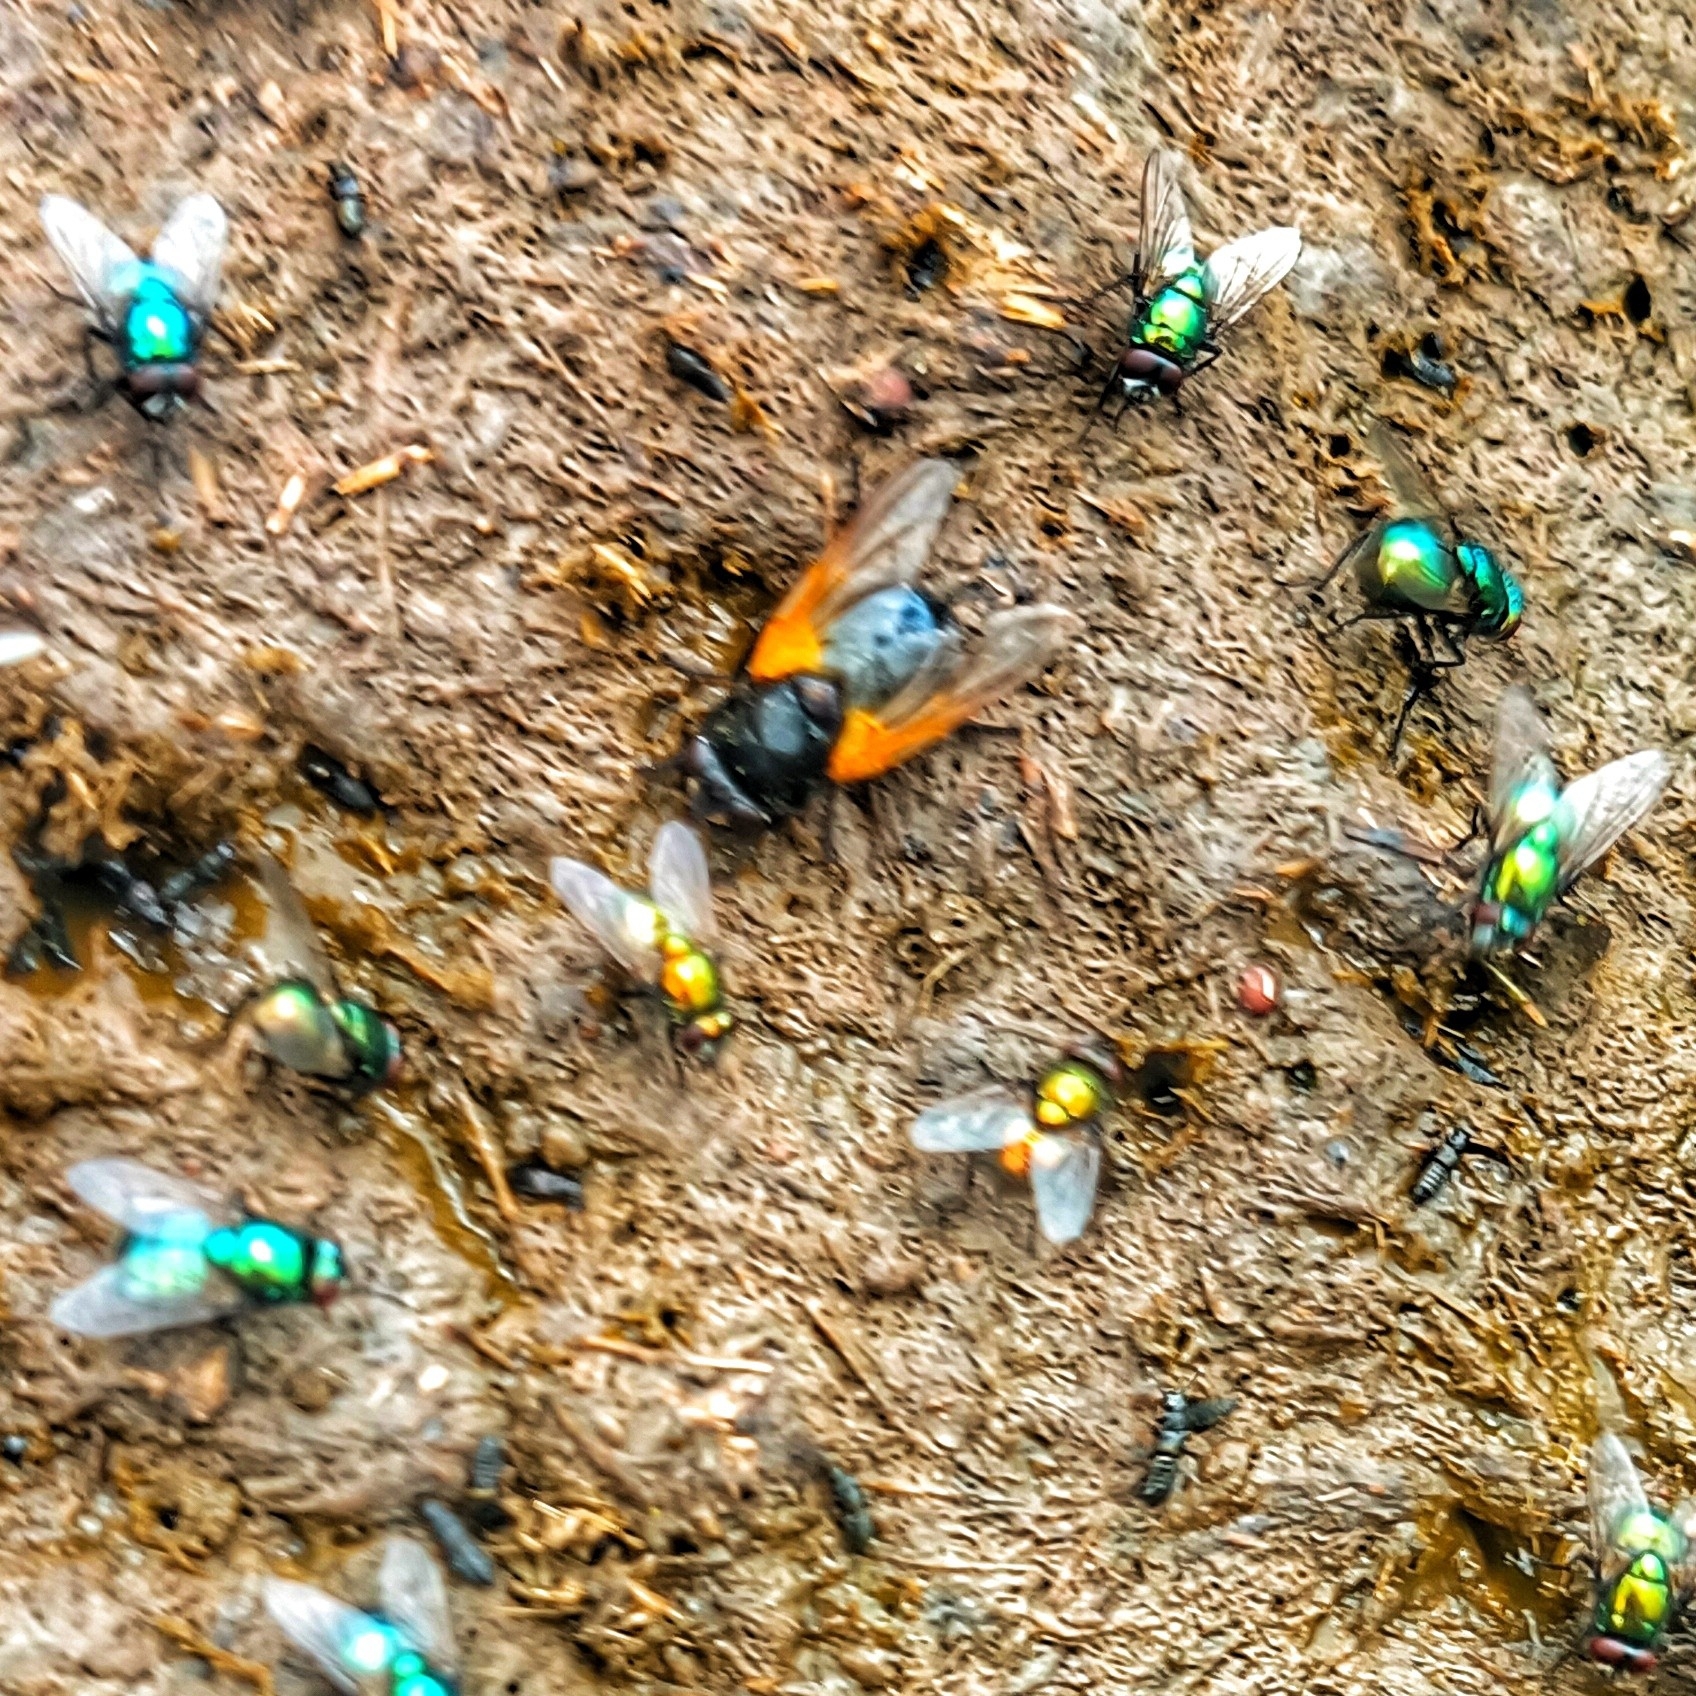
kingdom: Animalia
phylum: Arthropoda
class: Insecta
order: Diptera
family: Muscidae
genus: Mesembrina
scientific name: Mesembrina meridiana
